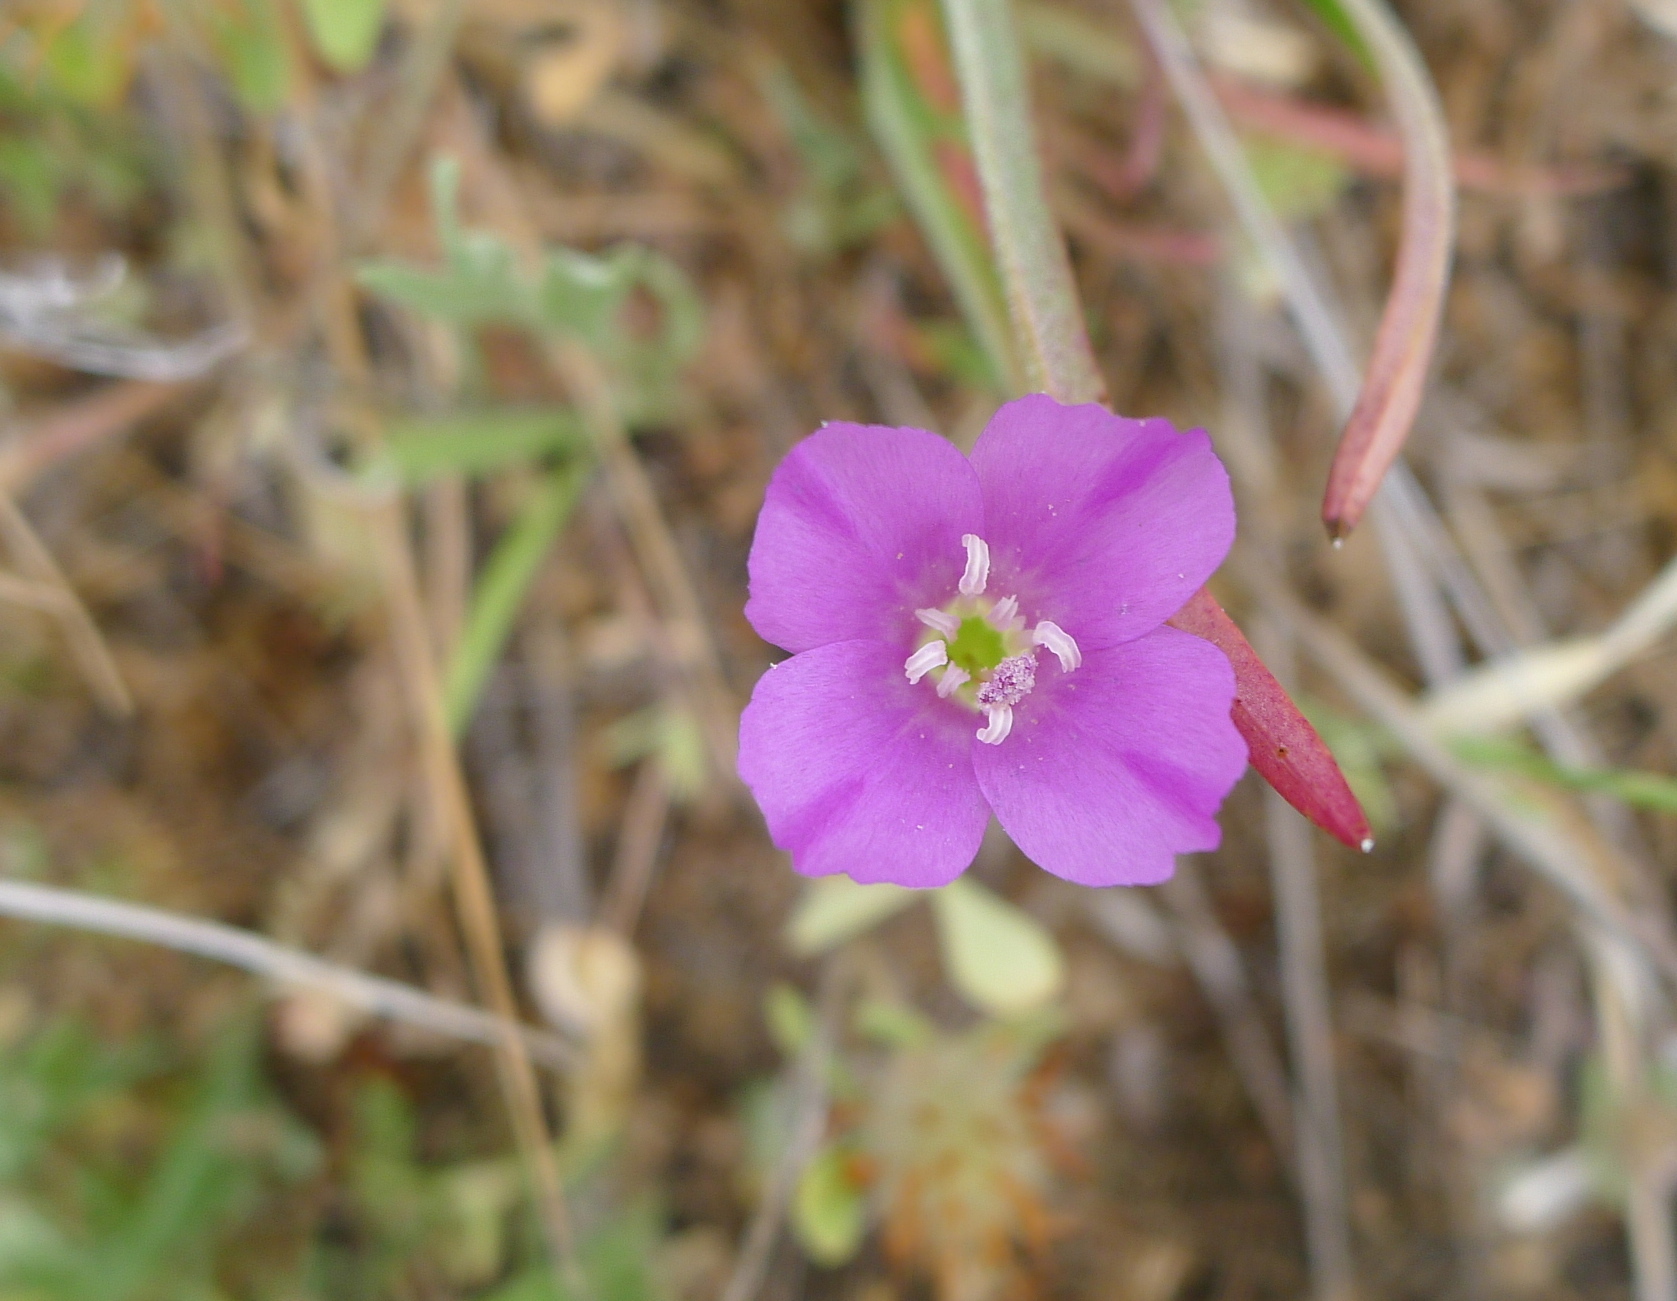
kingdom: Plantae
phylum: Tracheophyta
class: Magnoliopsida
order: Myrtales
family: Onagraceae
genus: Clarkia
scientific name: Clarkia purpurea
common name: Purple clarkia
